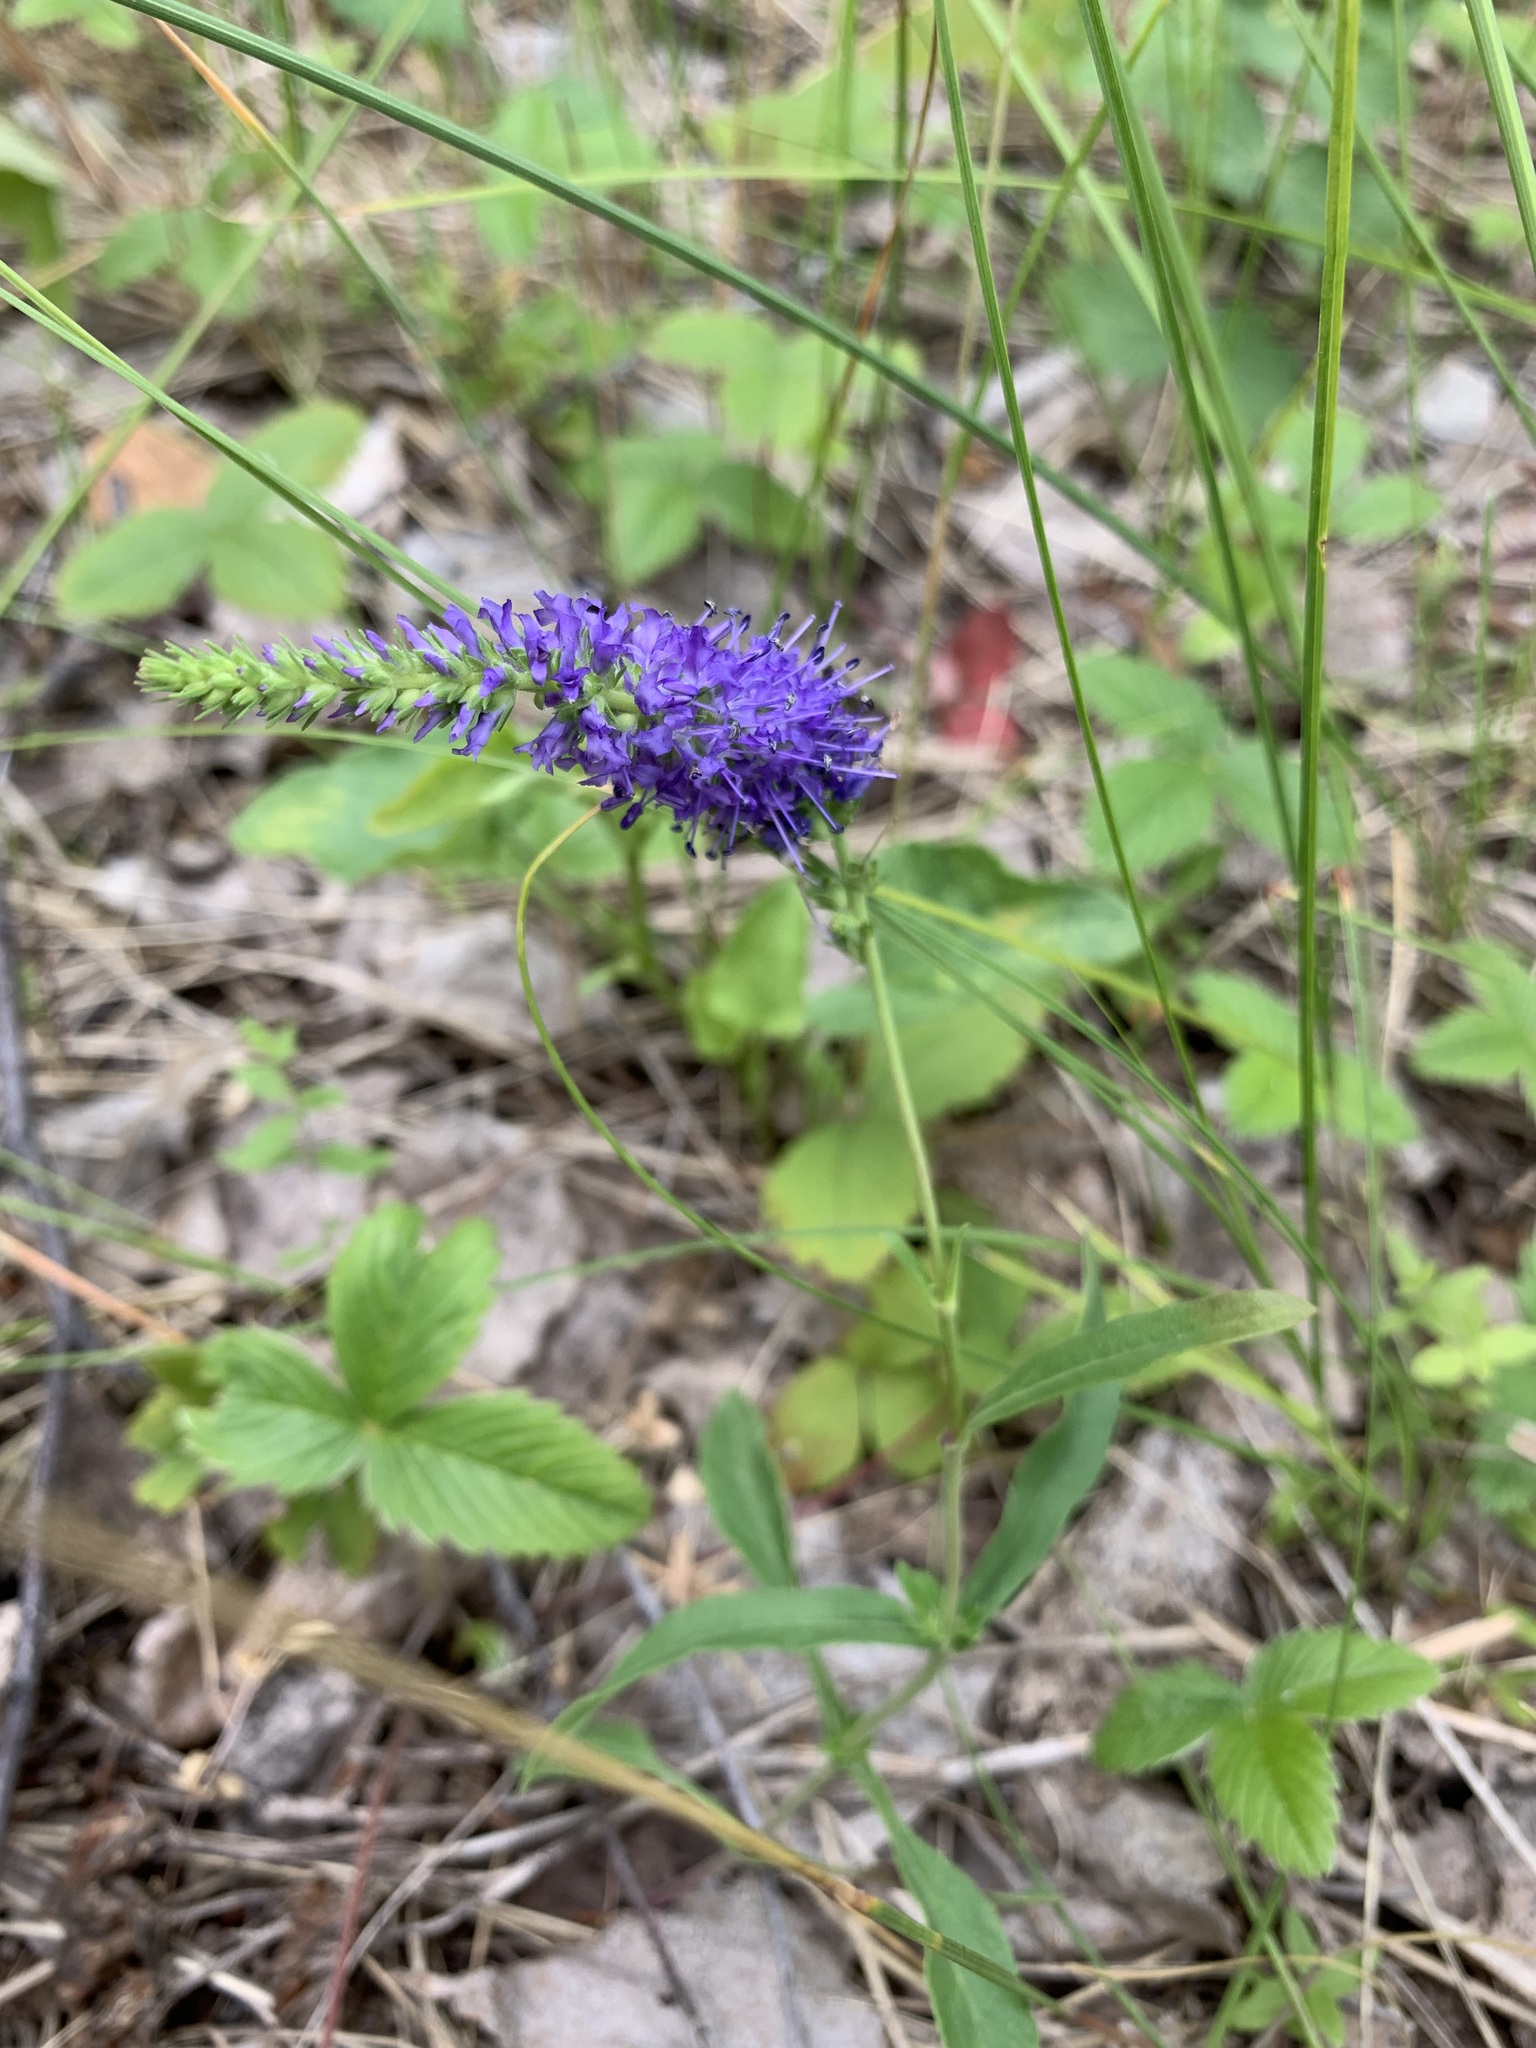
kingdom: Plantae
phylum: Tracheophyta
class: Magnoliopsida
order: Lamiales
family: Plantaginaceae
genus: Veronica
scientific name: Veronica spicata
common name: Spiked speedwell
